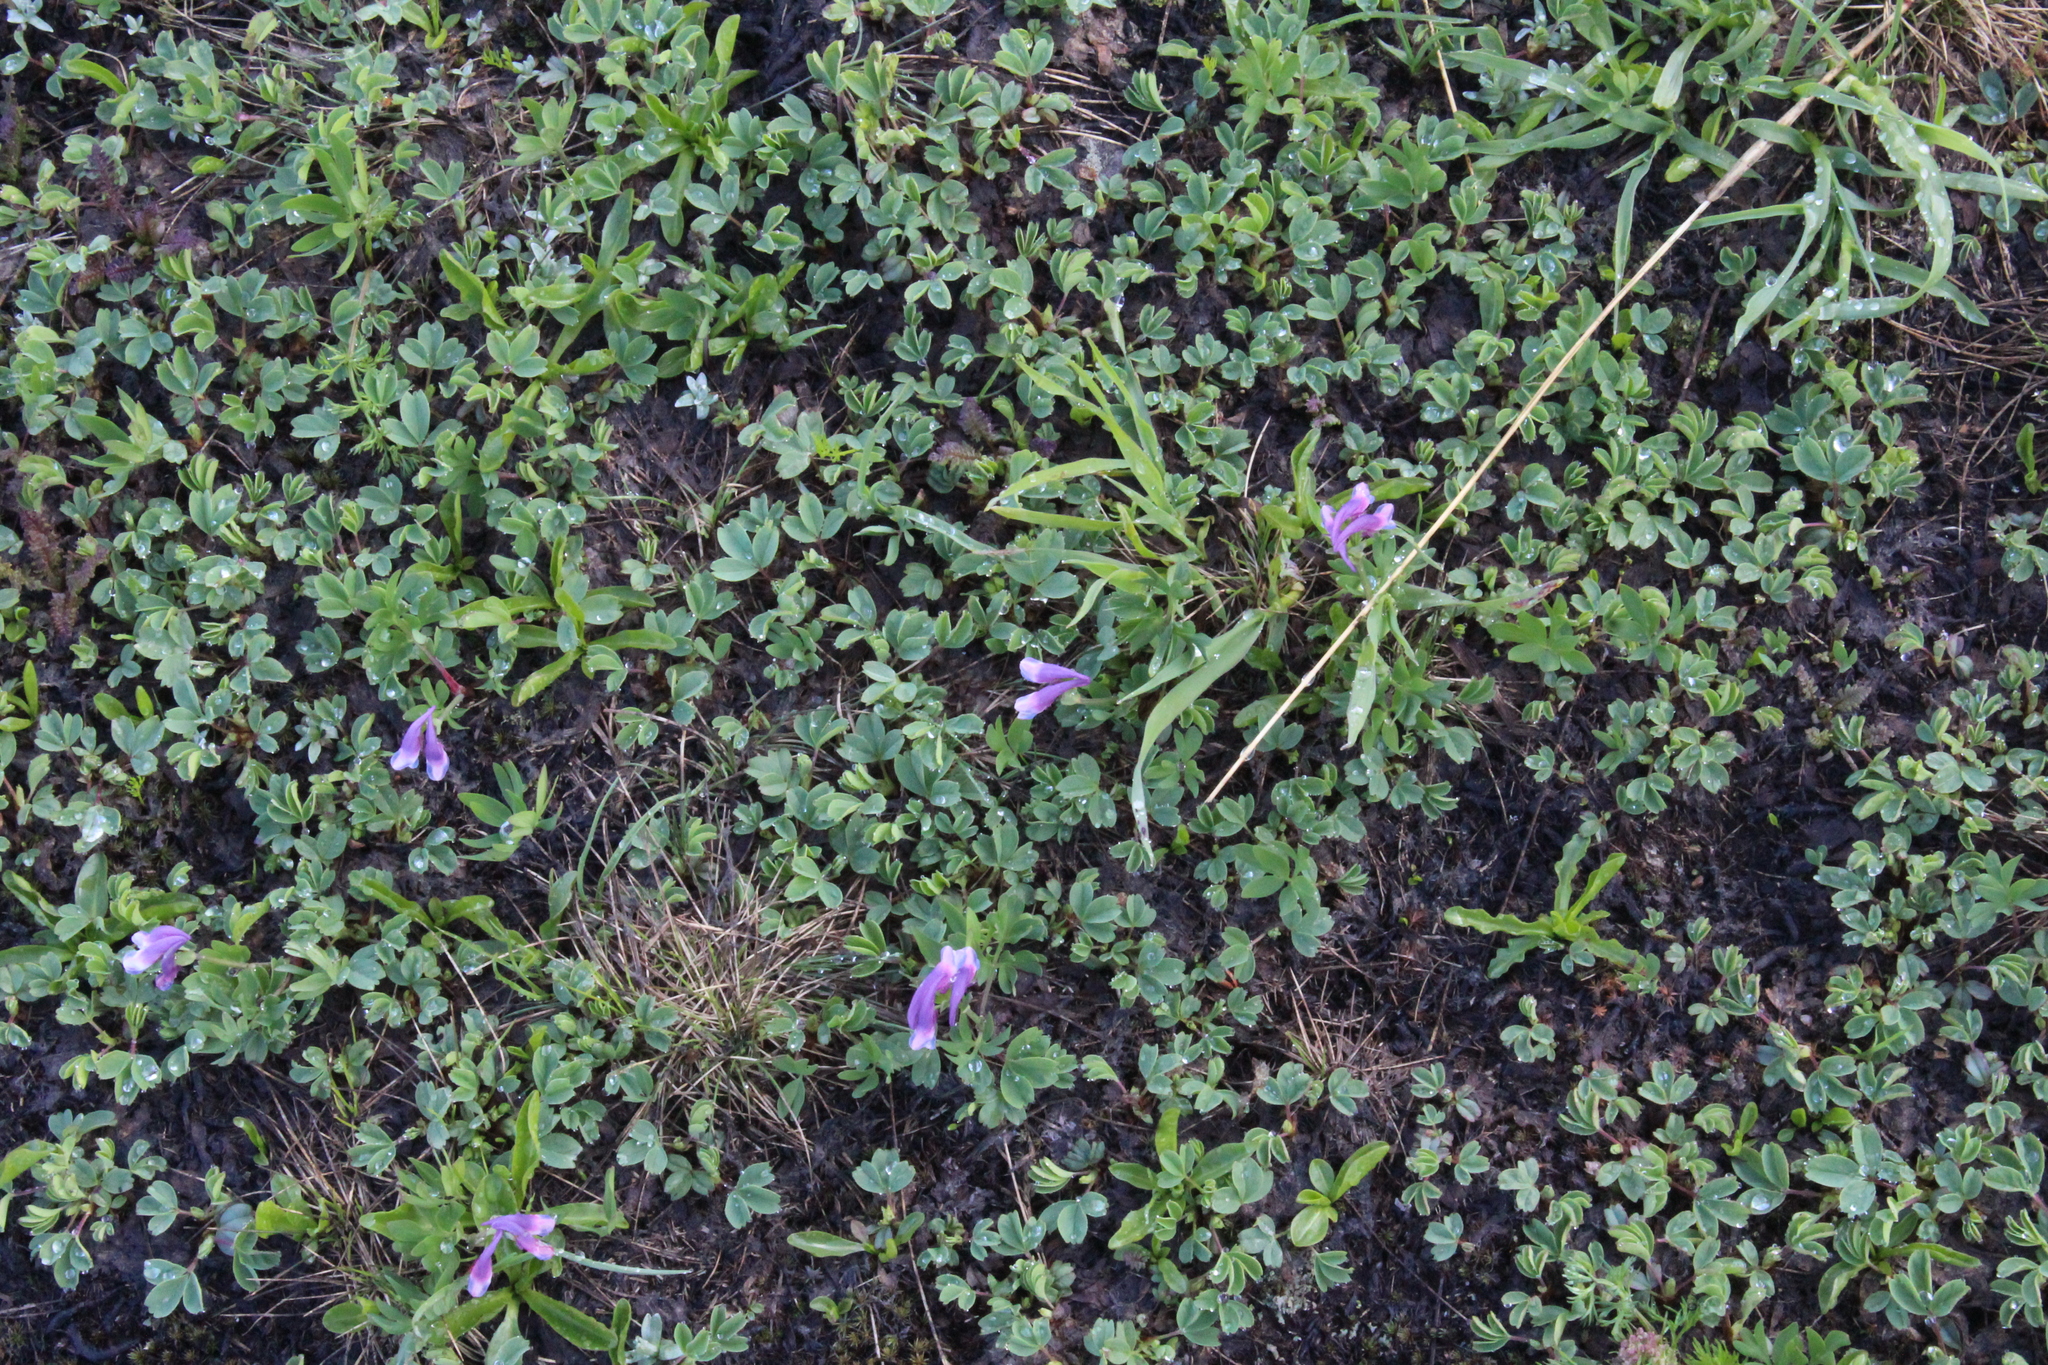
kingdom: Plantae
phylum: Tracheophyta
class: Magnoliopsida
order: Ranunculales
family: Papaveraceae
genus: Corydalis
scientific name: Corydalis conorhiza
